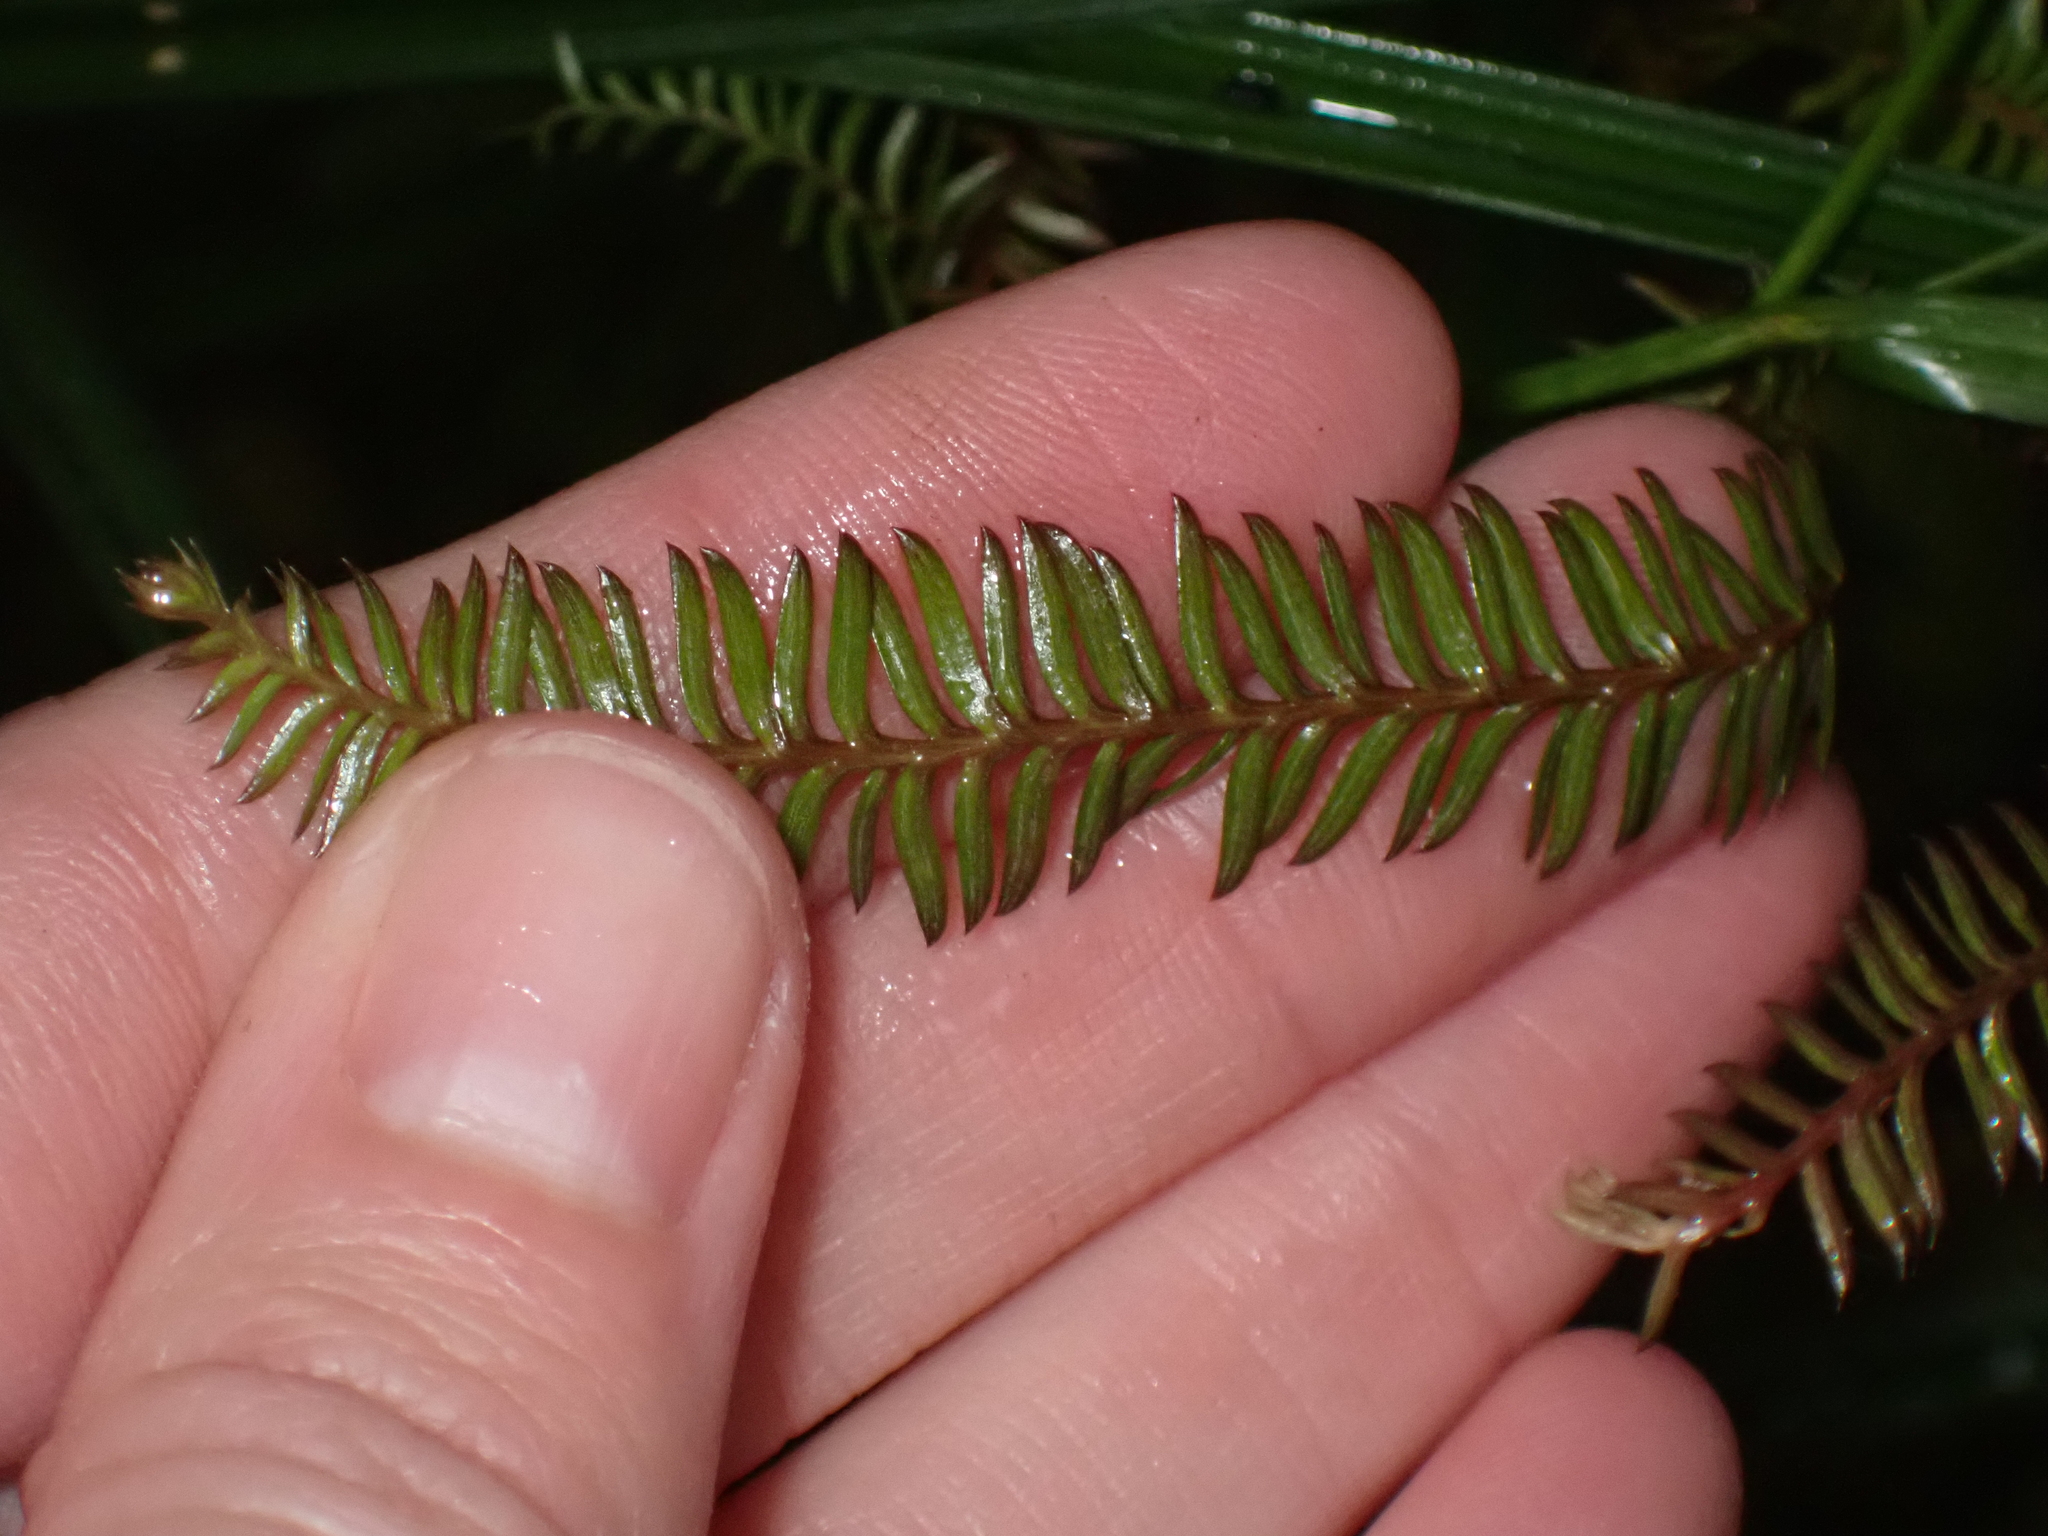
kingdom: Plantae
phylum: Tracheophyta
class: Pinopsida
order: Pinales
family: Podocarpaceae
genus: Dacrycarpus
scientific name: Dacrycarpus dacrydioides
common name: White pine
